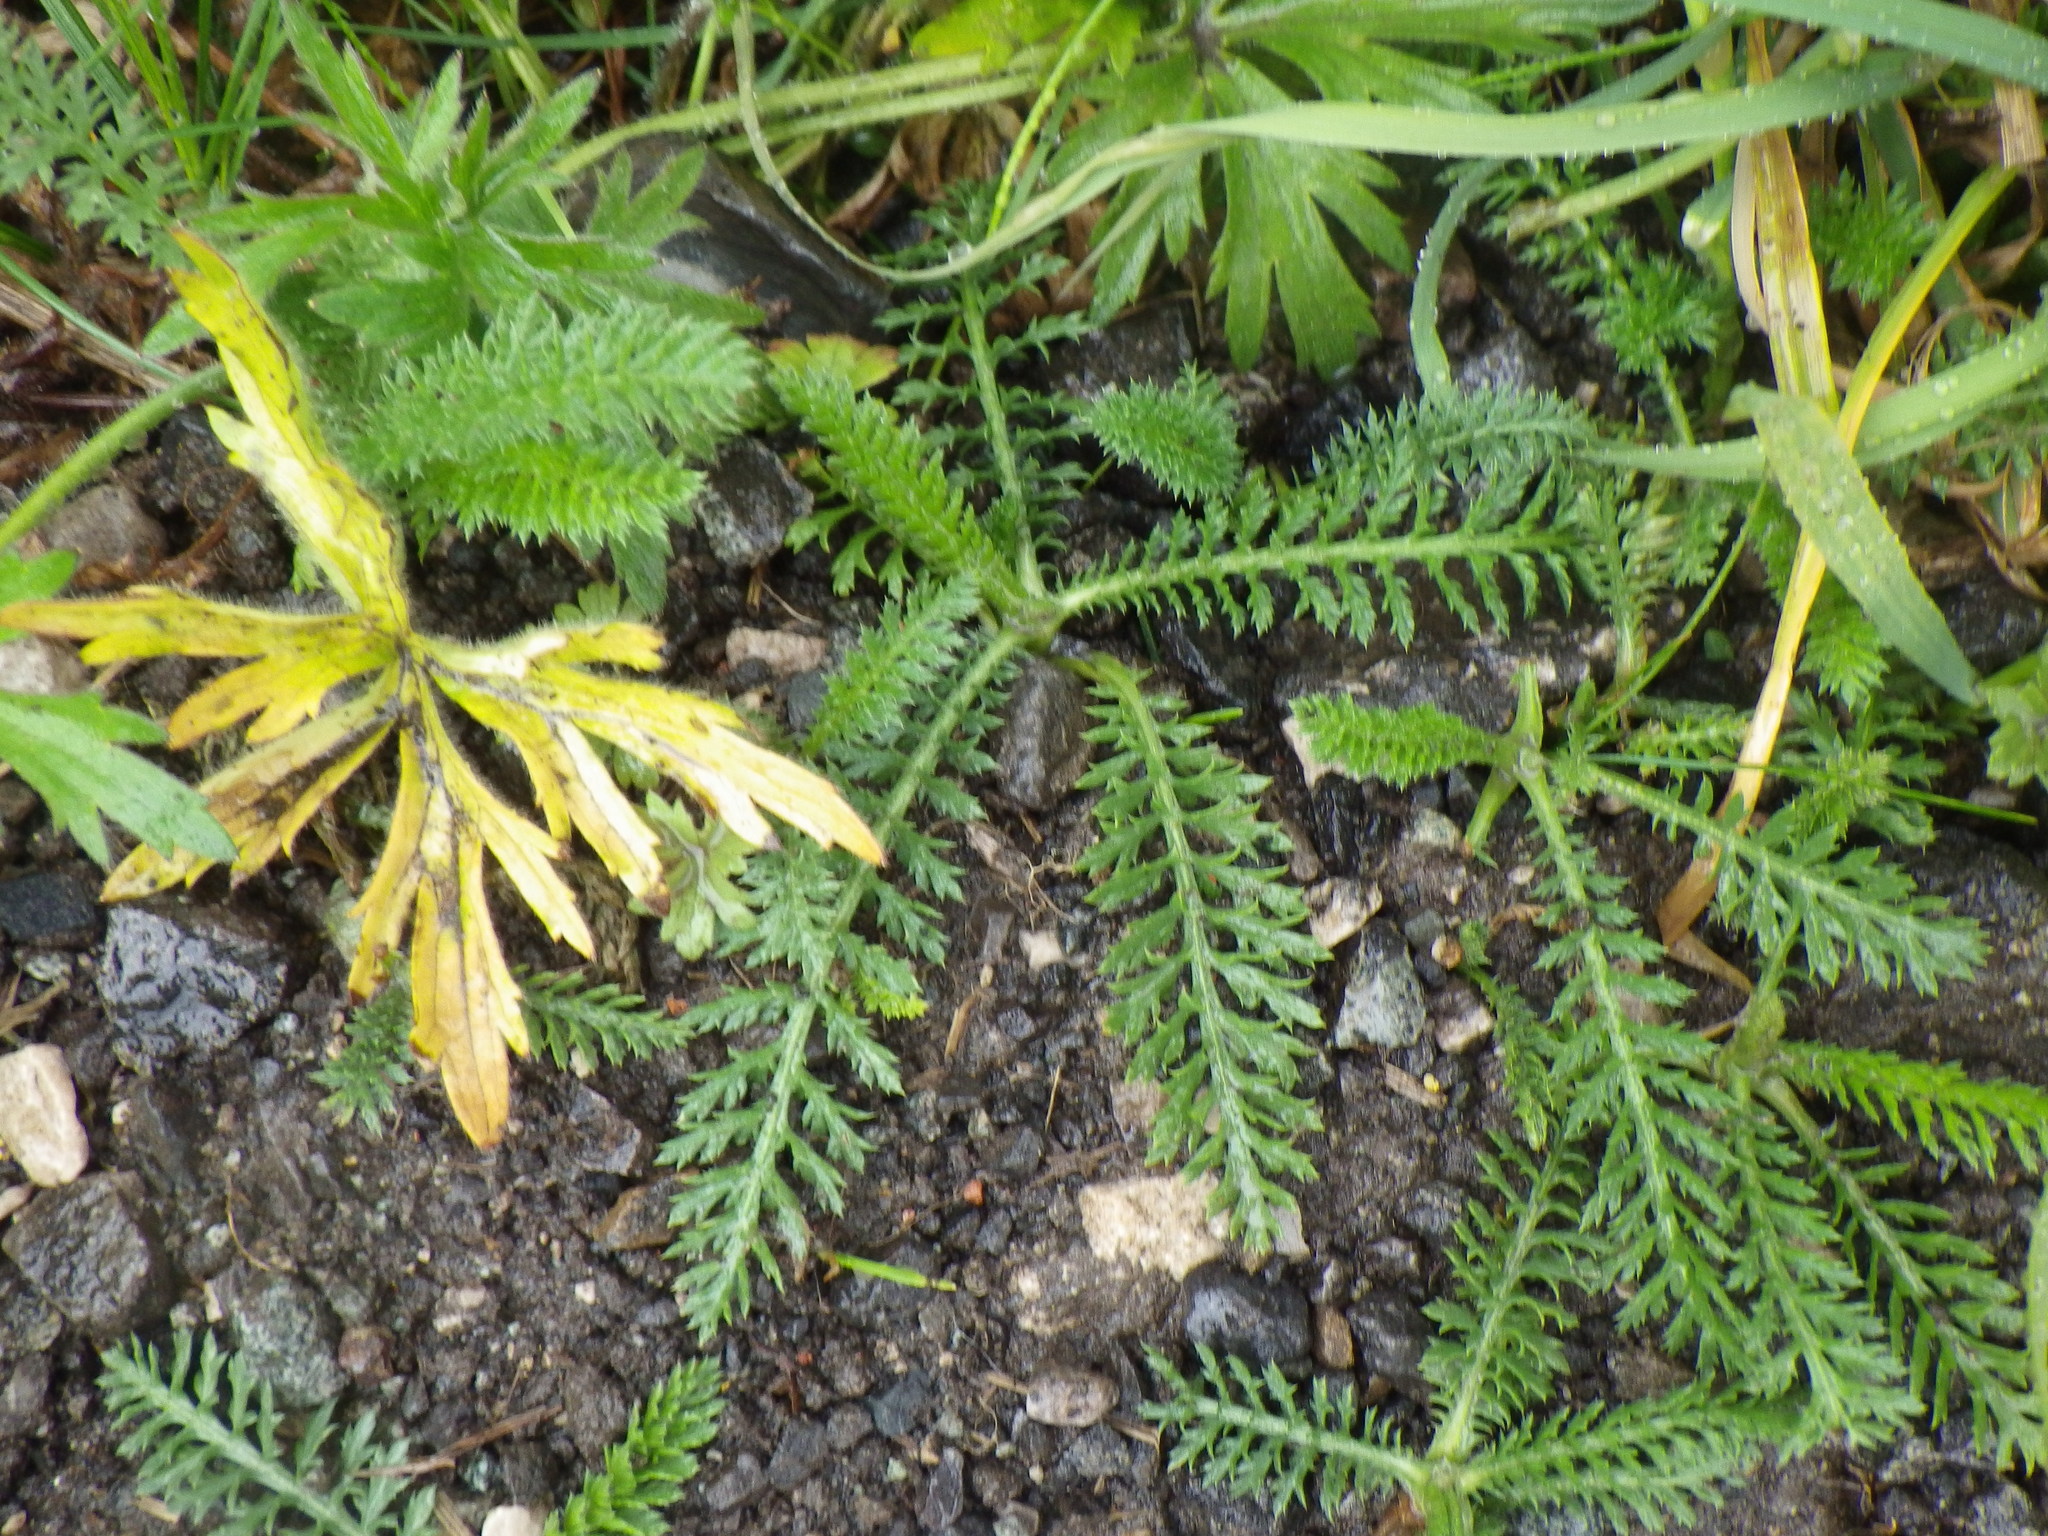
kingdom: Plantae
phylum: Tracheophyta
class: Magnoliopsida
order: Asterales
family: Asteraceae
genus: Achillea
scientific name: Achillea millefolium
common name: Yarrow
